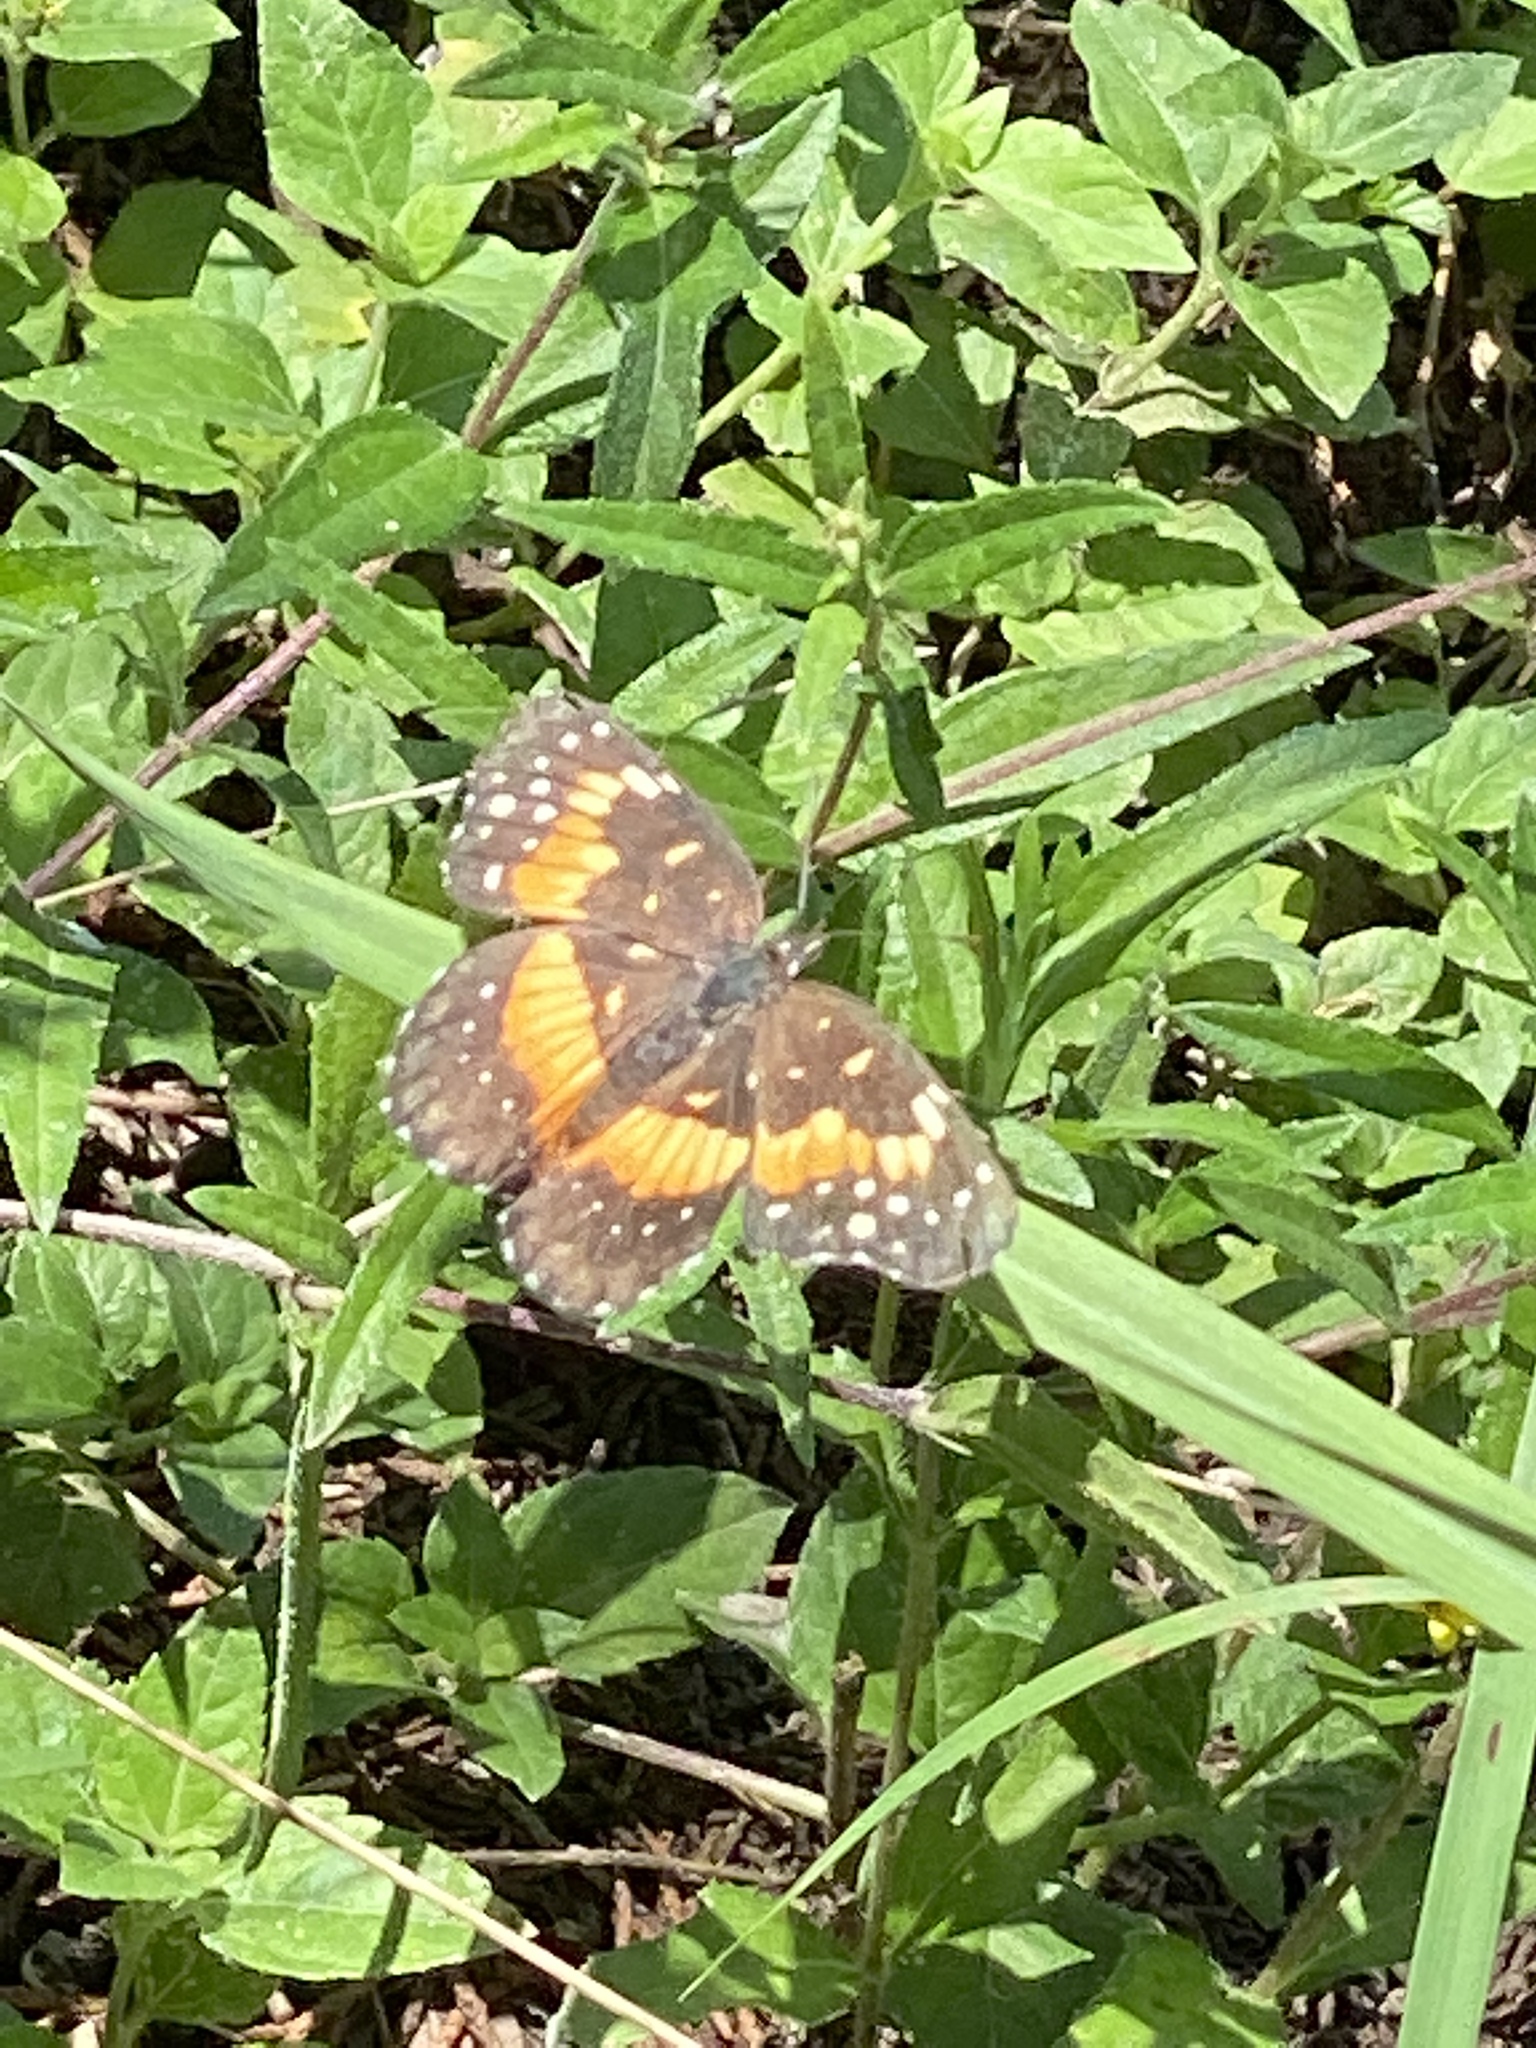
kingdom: Animalia
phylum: Arthropoda
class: Insecta
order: Lepidoptera
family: Nymphalidae
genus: Chlosyne
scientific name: Chlosyne lacinia
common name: Bordered patch
